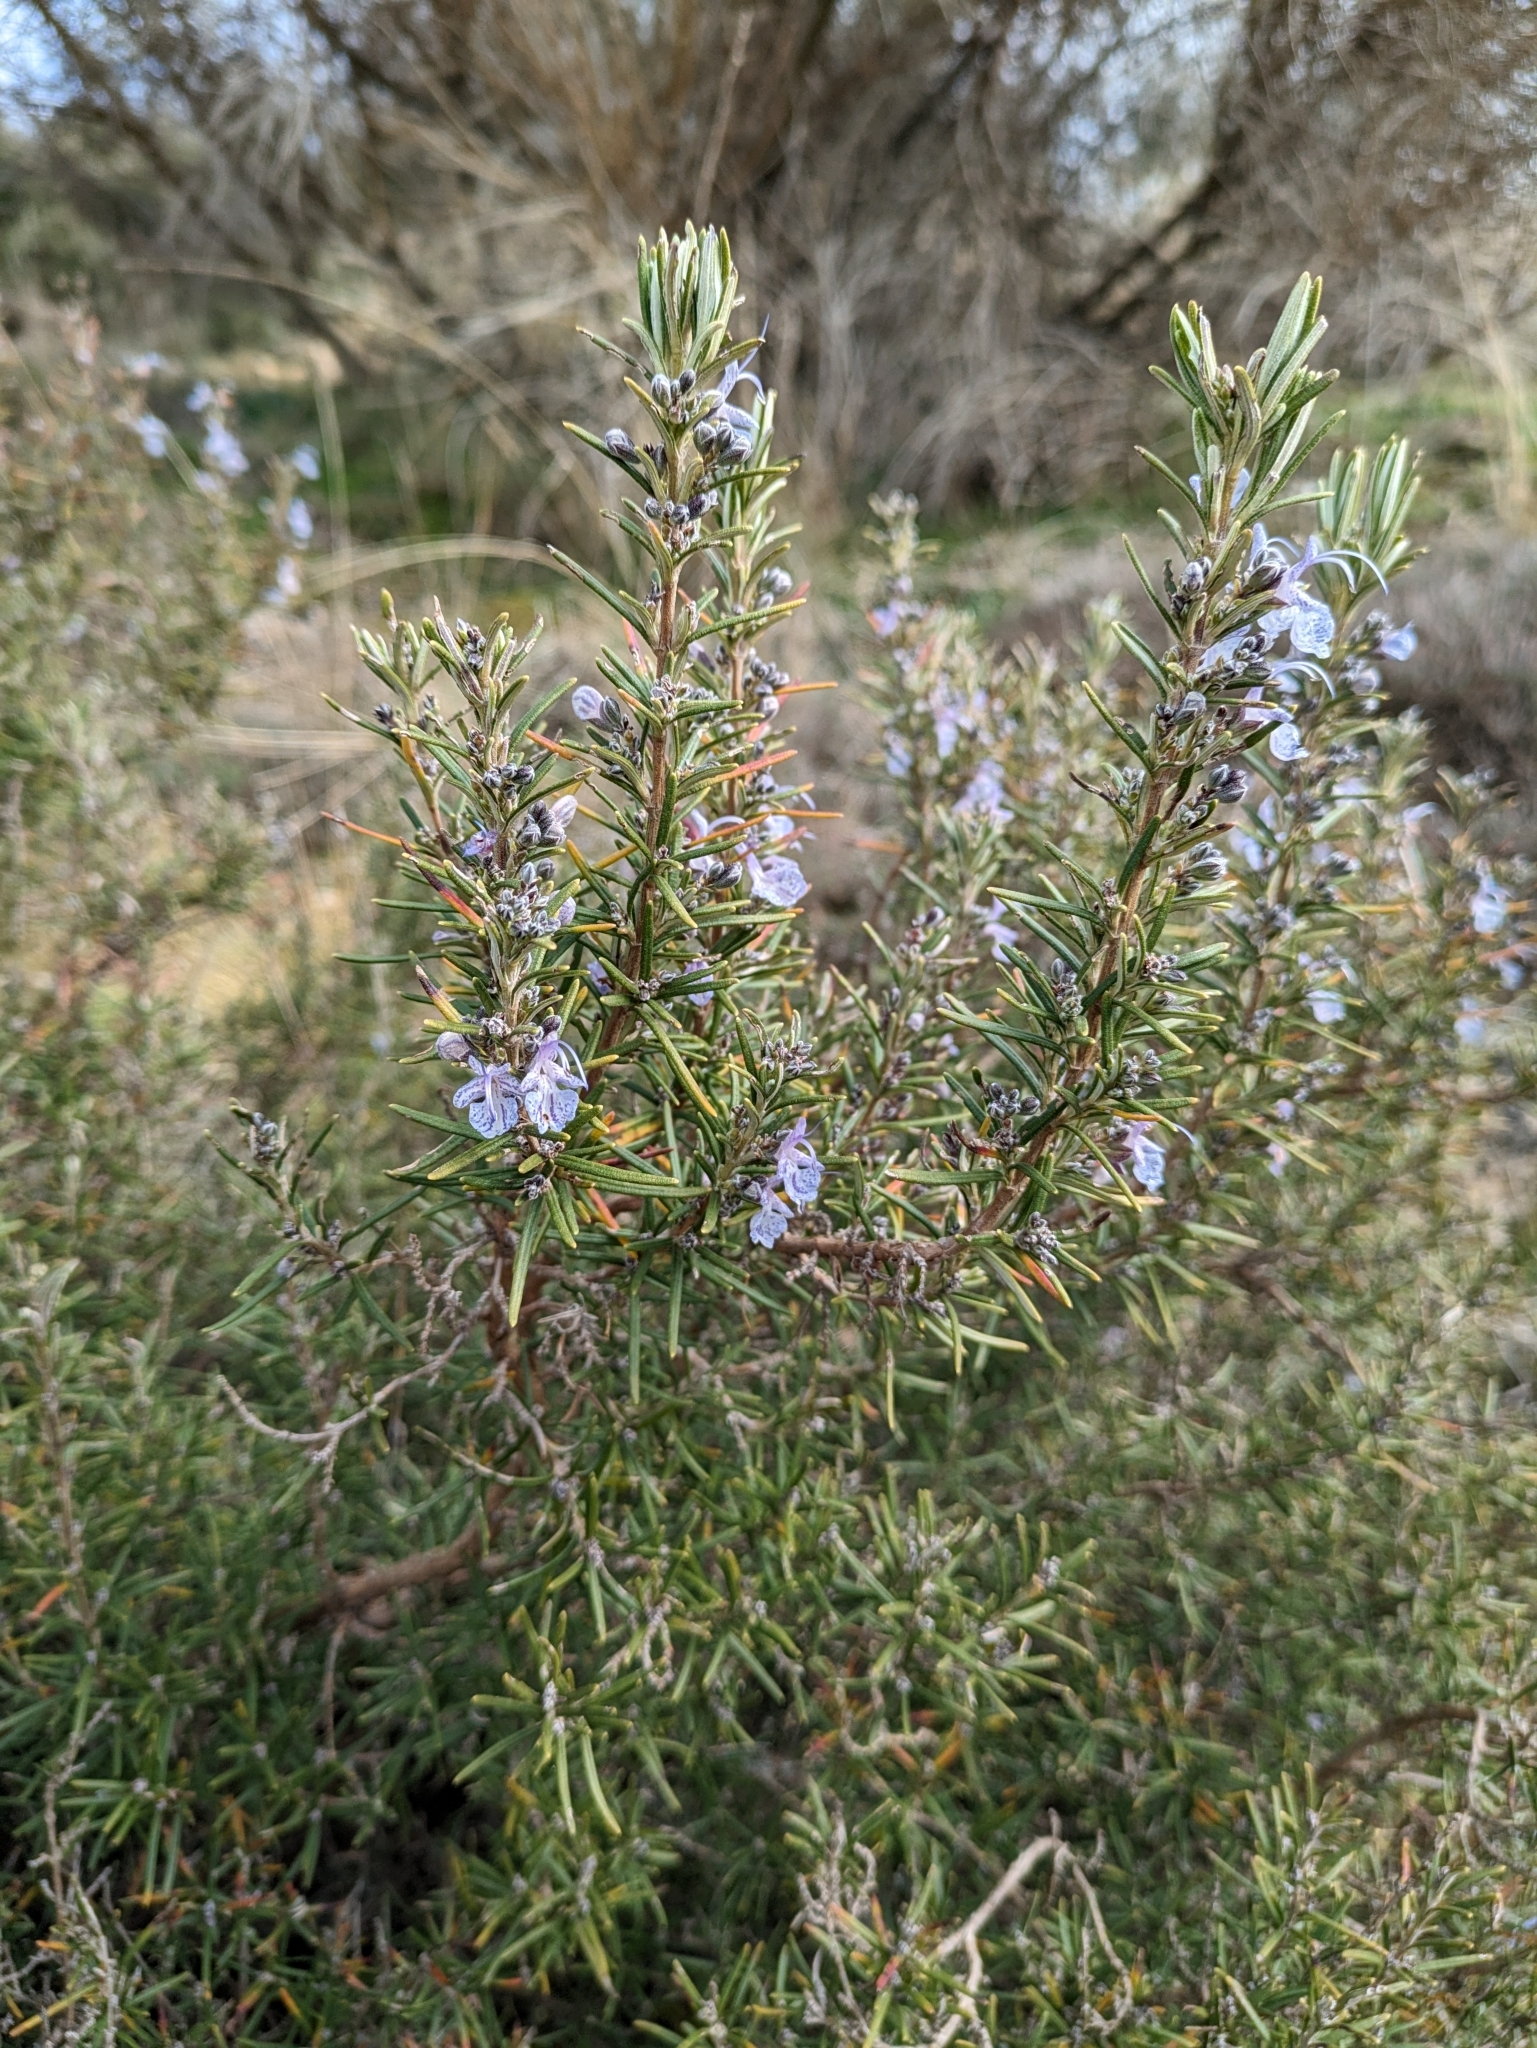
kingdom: Plantae
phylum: Tracheophyta
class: Magnoliopsida
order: Lamiales
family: Lamiaceae
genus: Salvia
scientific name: Salvia rosmarinus
